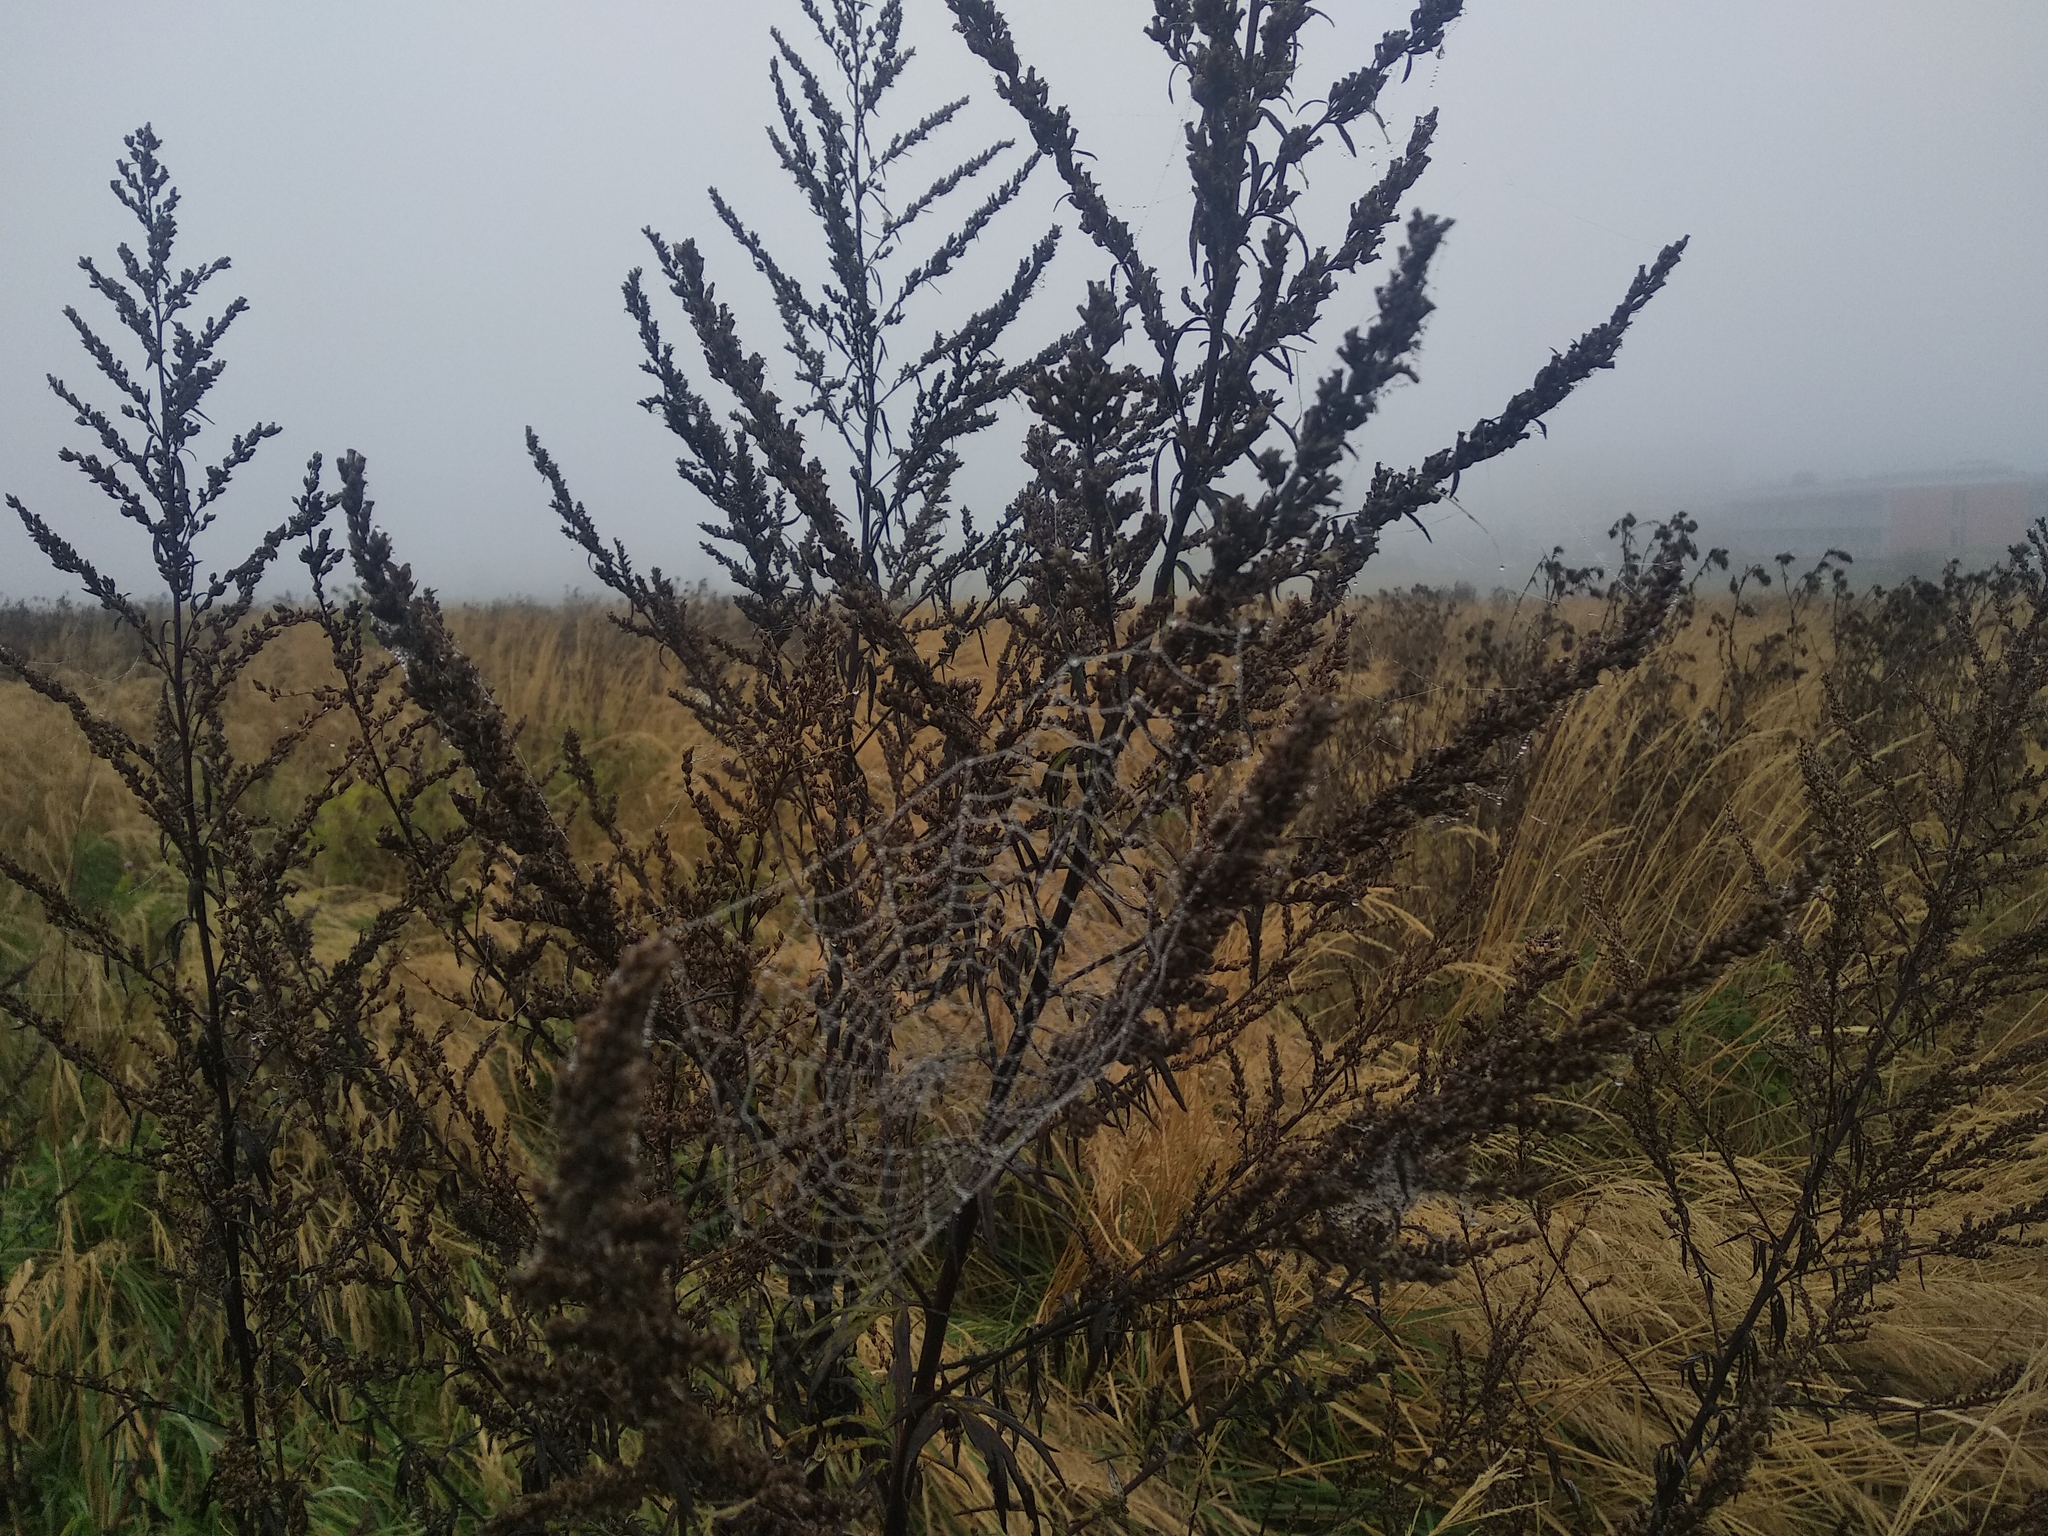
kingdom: Plantae
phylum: Tracheophyta
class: Magnoliopsida
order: Asterales
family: Asteraceae
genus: Artemisia
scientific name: Artemisia vulgaris
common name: Mugwort
